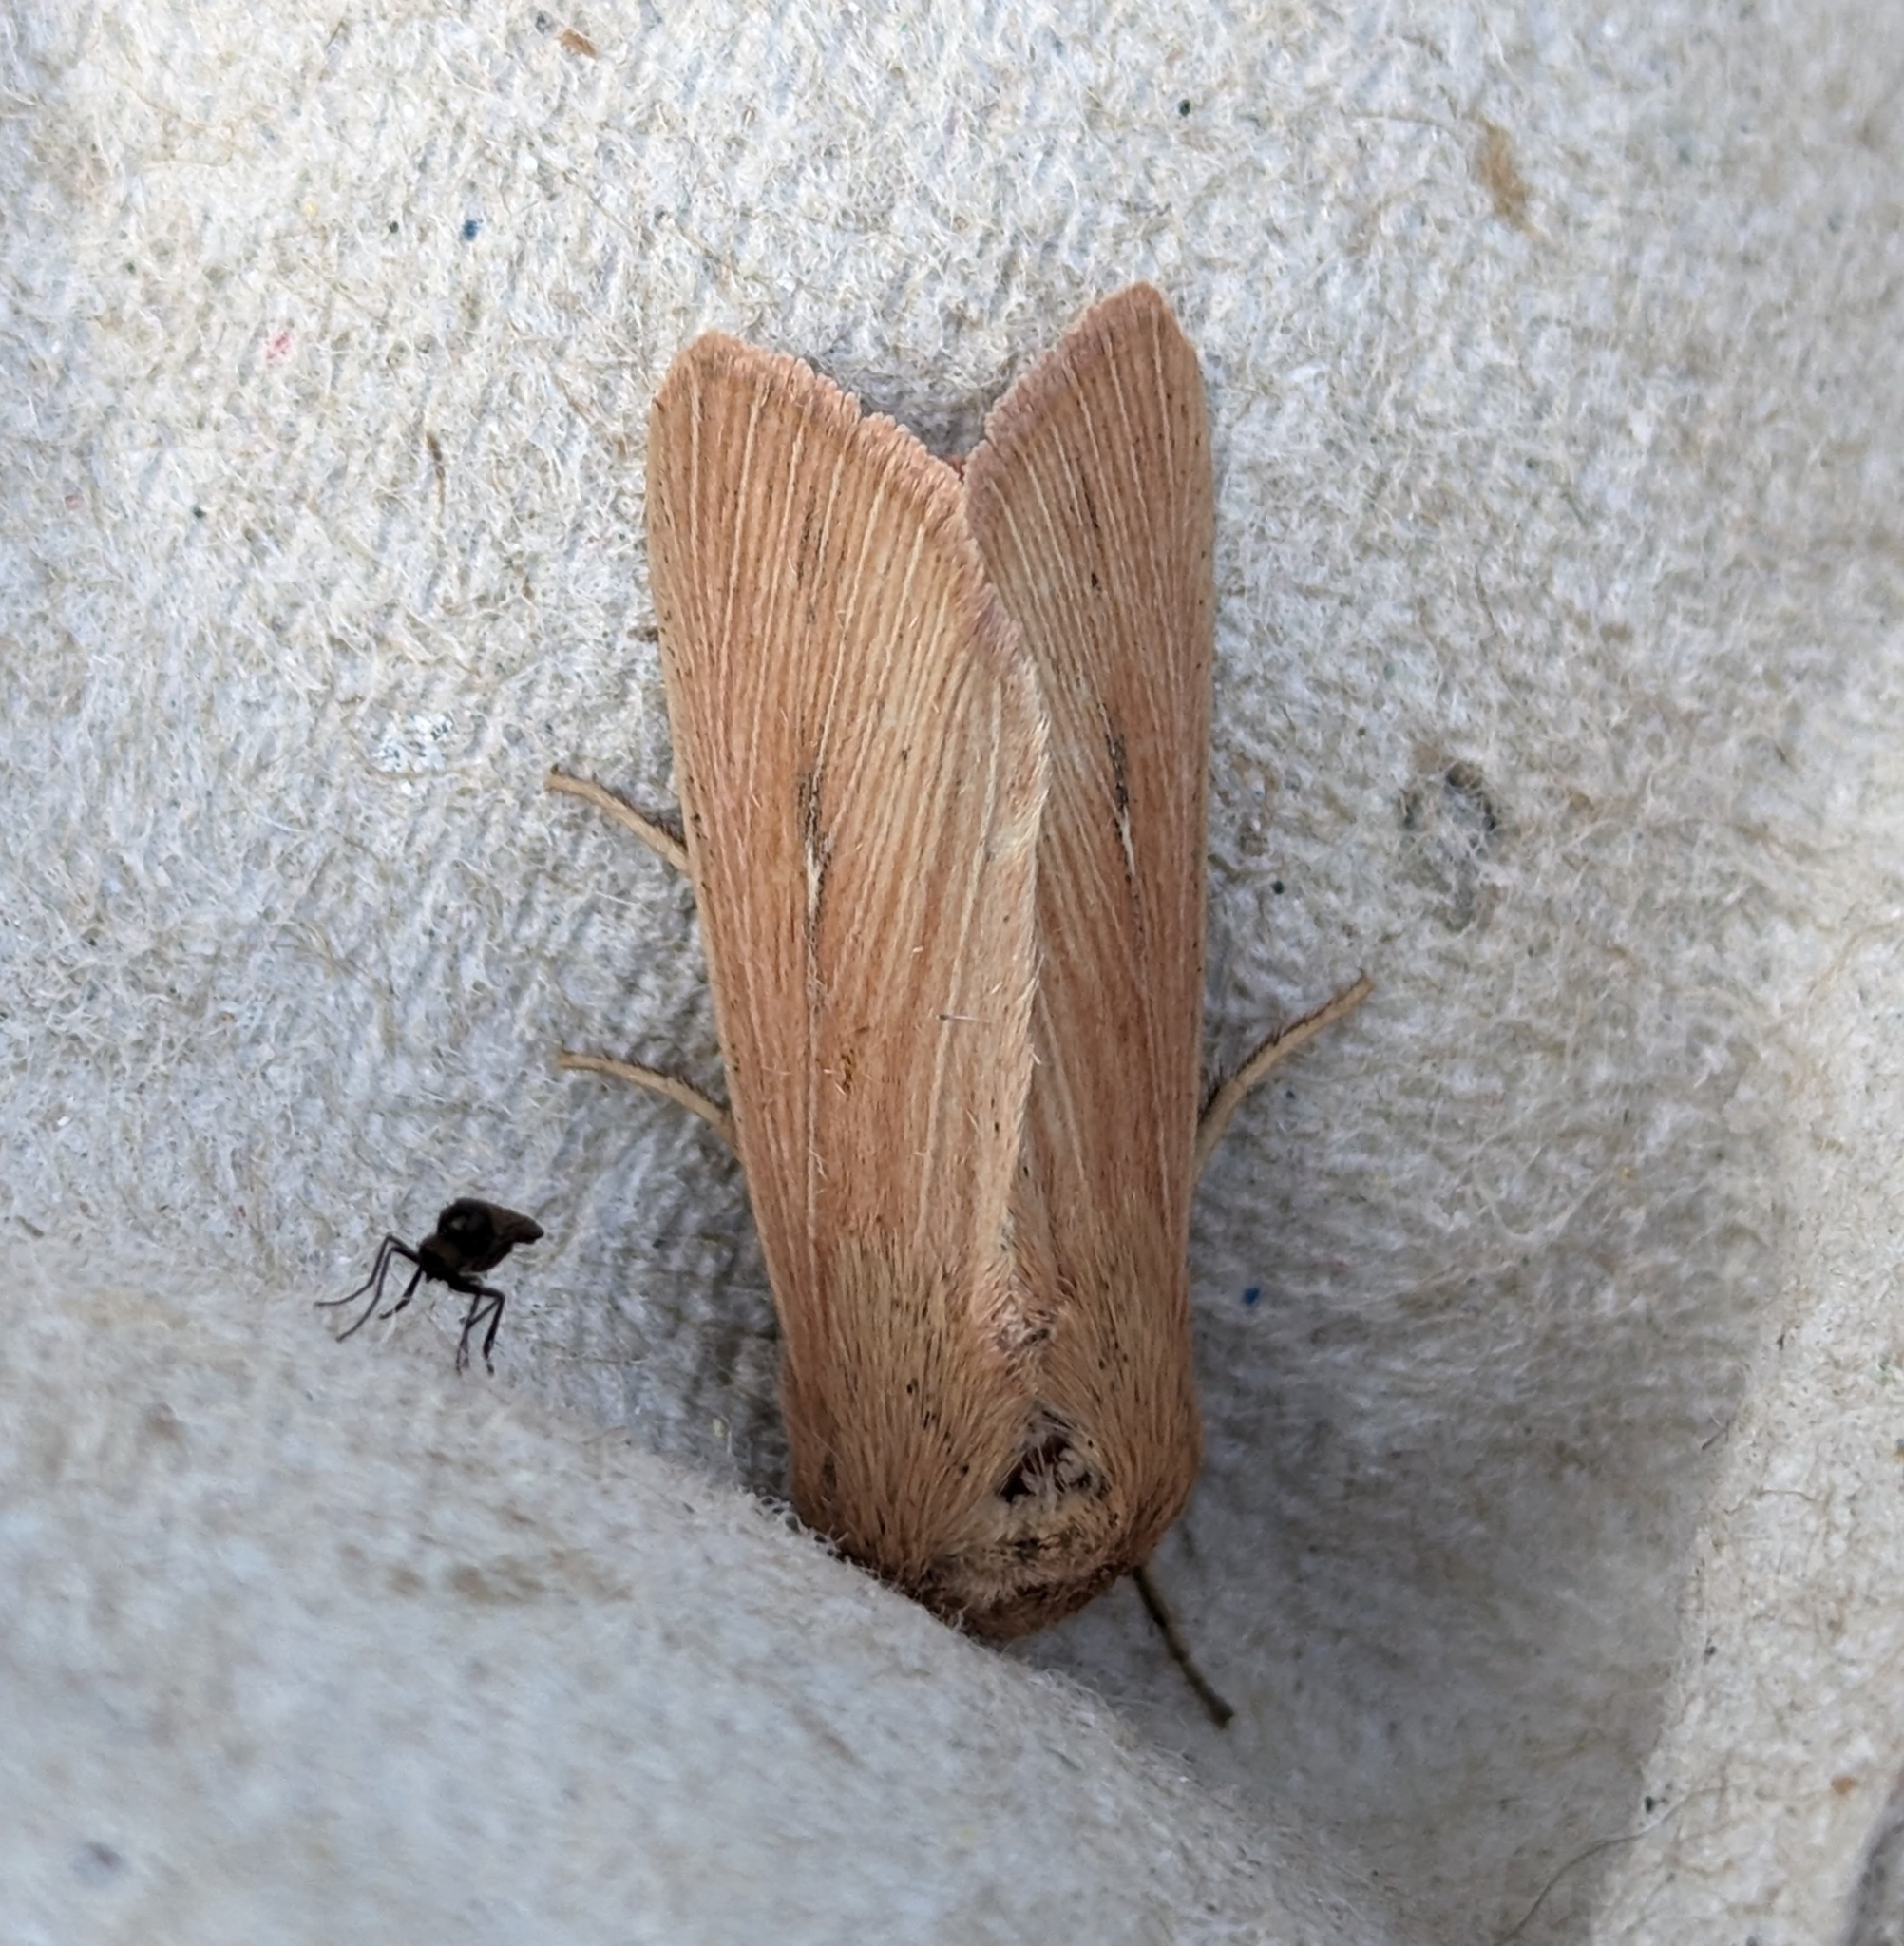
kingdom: Animalia
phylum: Arthropoda
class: Insecta
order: Lepidoptera
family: Noctuidae
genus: Leucania
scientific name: Leucania farcta
